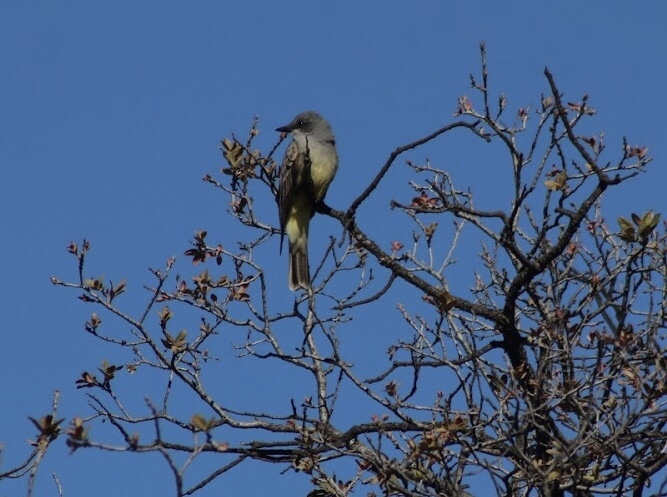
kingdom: Animalia
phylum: Chordata
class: Aves
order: Passeriformes
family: Tyrannidae
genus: Tyrannus
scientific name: Tyrannus vociferans
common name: Cassin's kingbird
